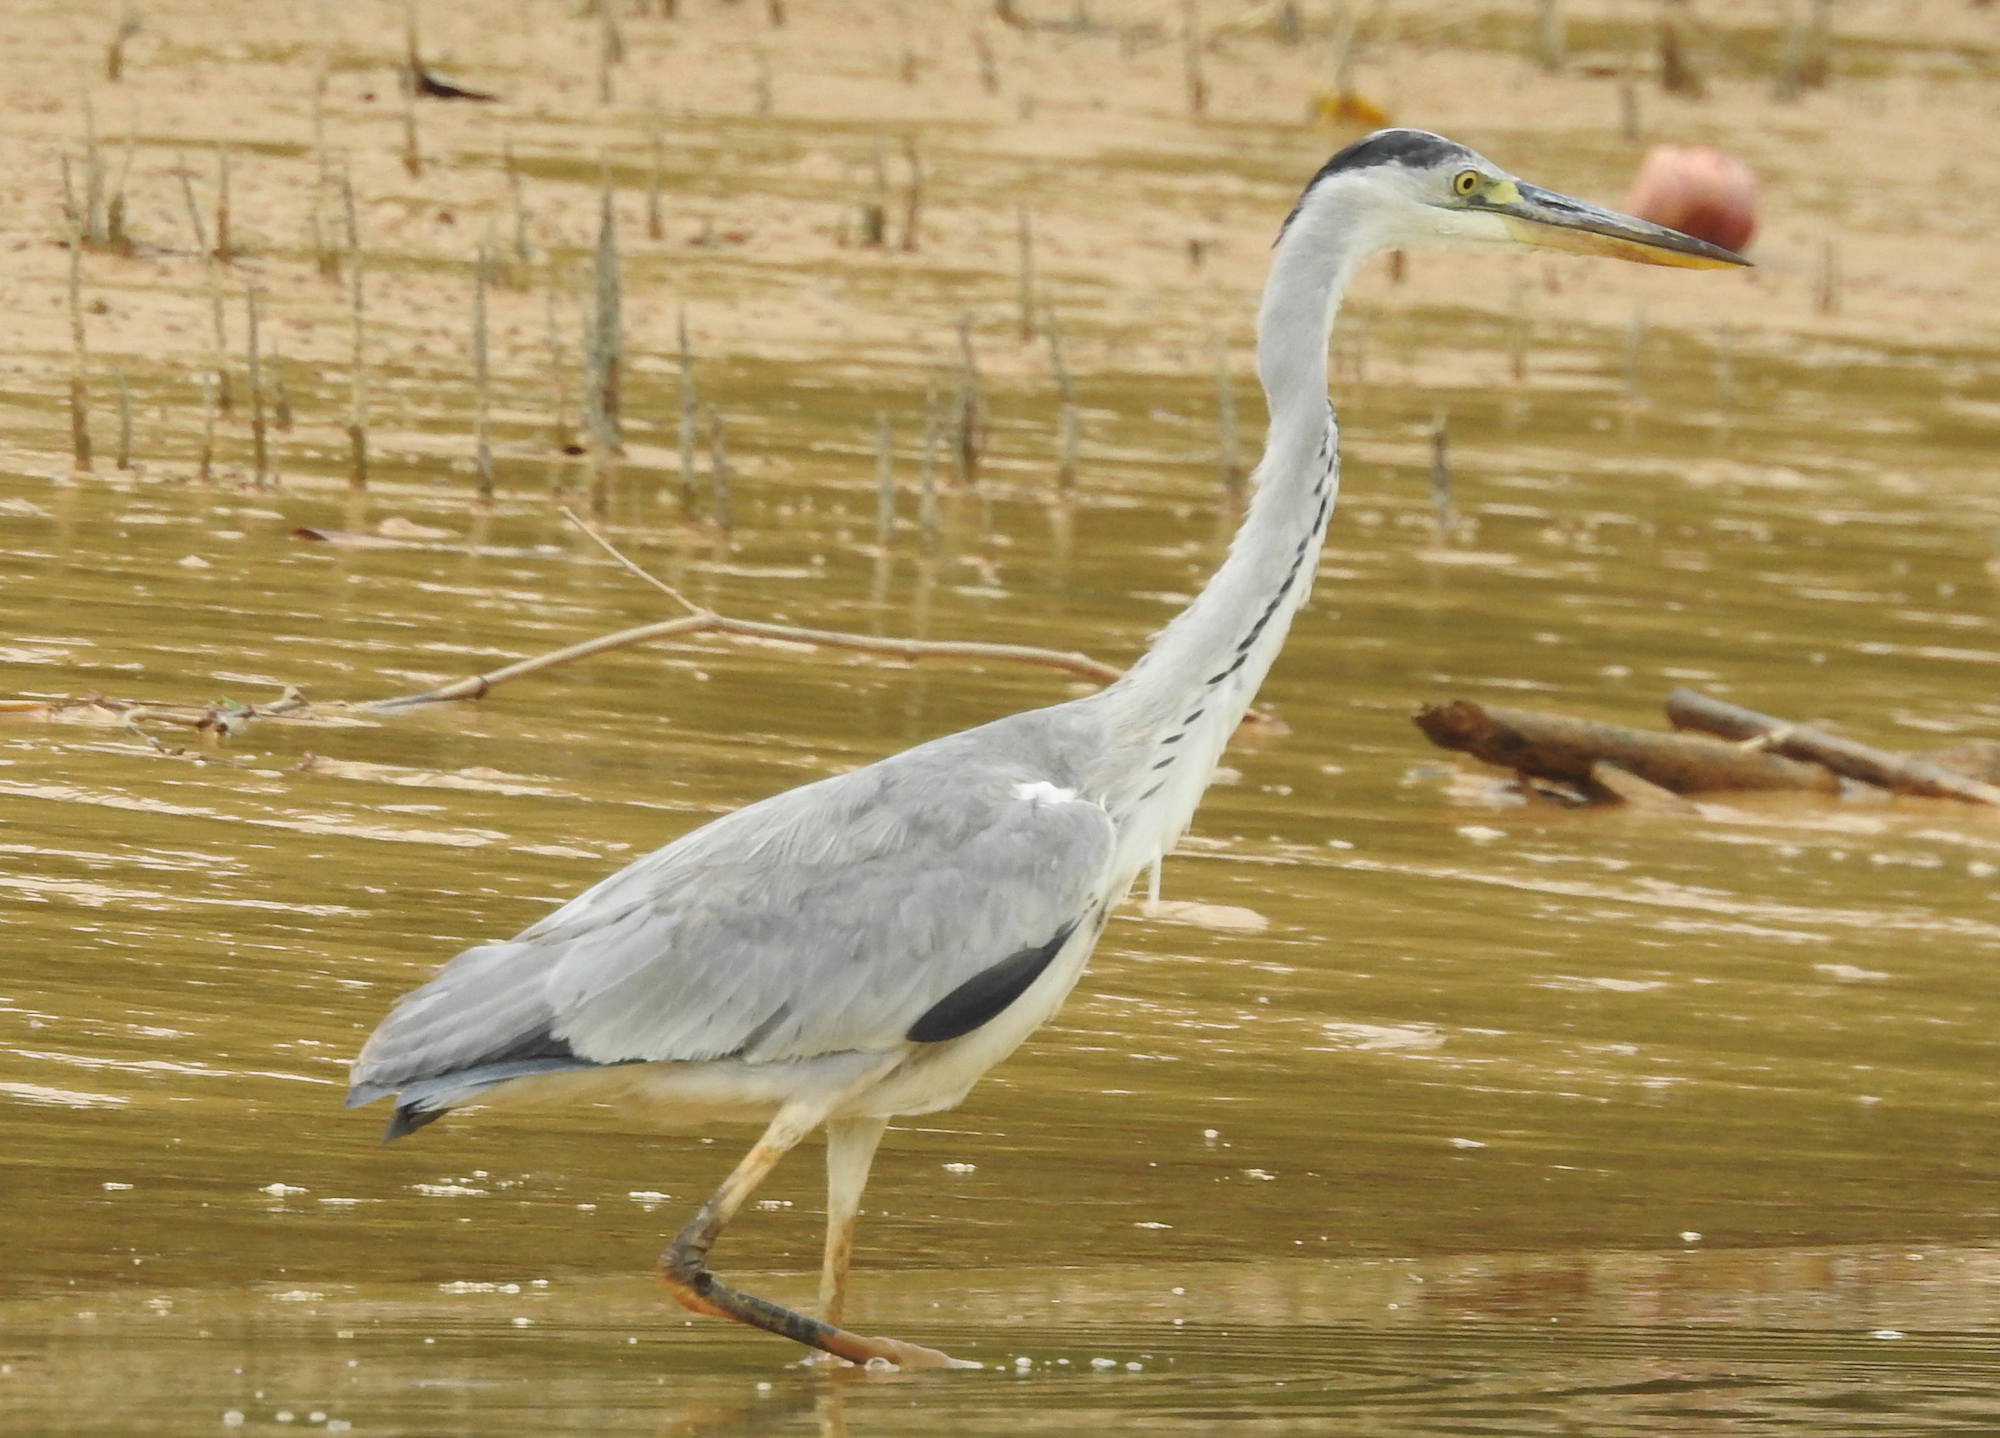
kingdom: Animalia
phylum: Chordata
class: Aves
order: Pelecaniformes
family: Ardeidae
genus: Ardea
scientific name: Ardea cinerea
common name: Grey heron
